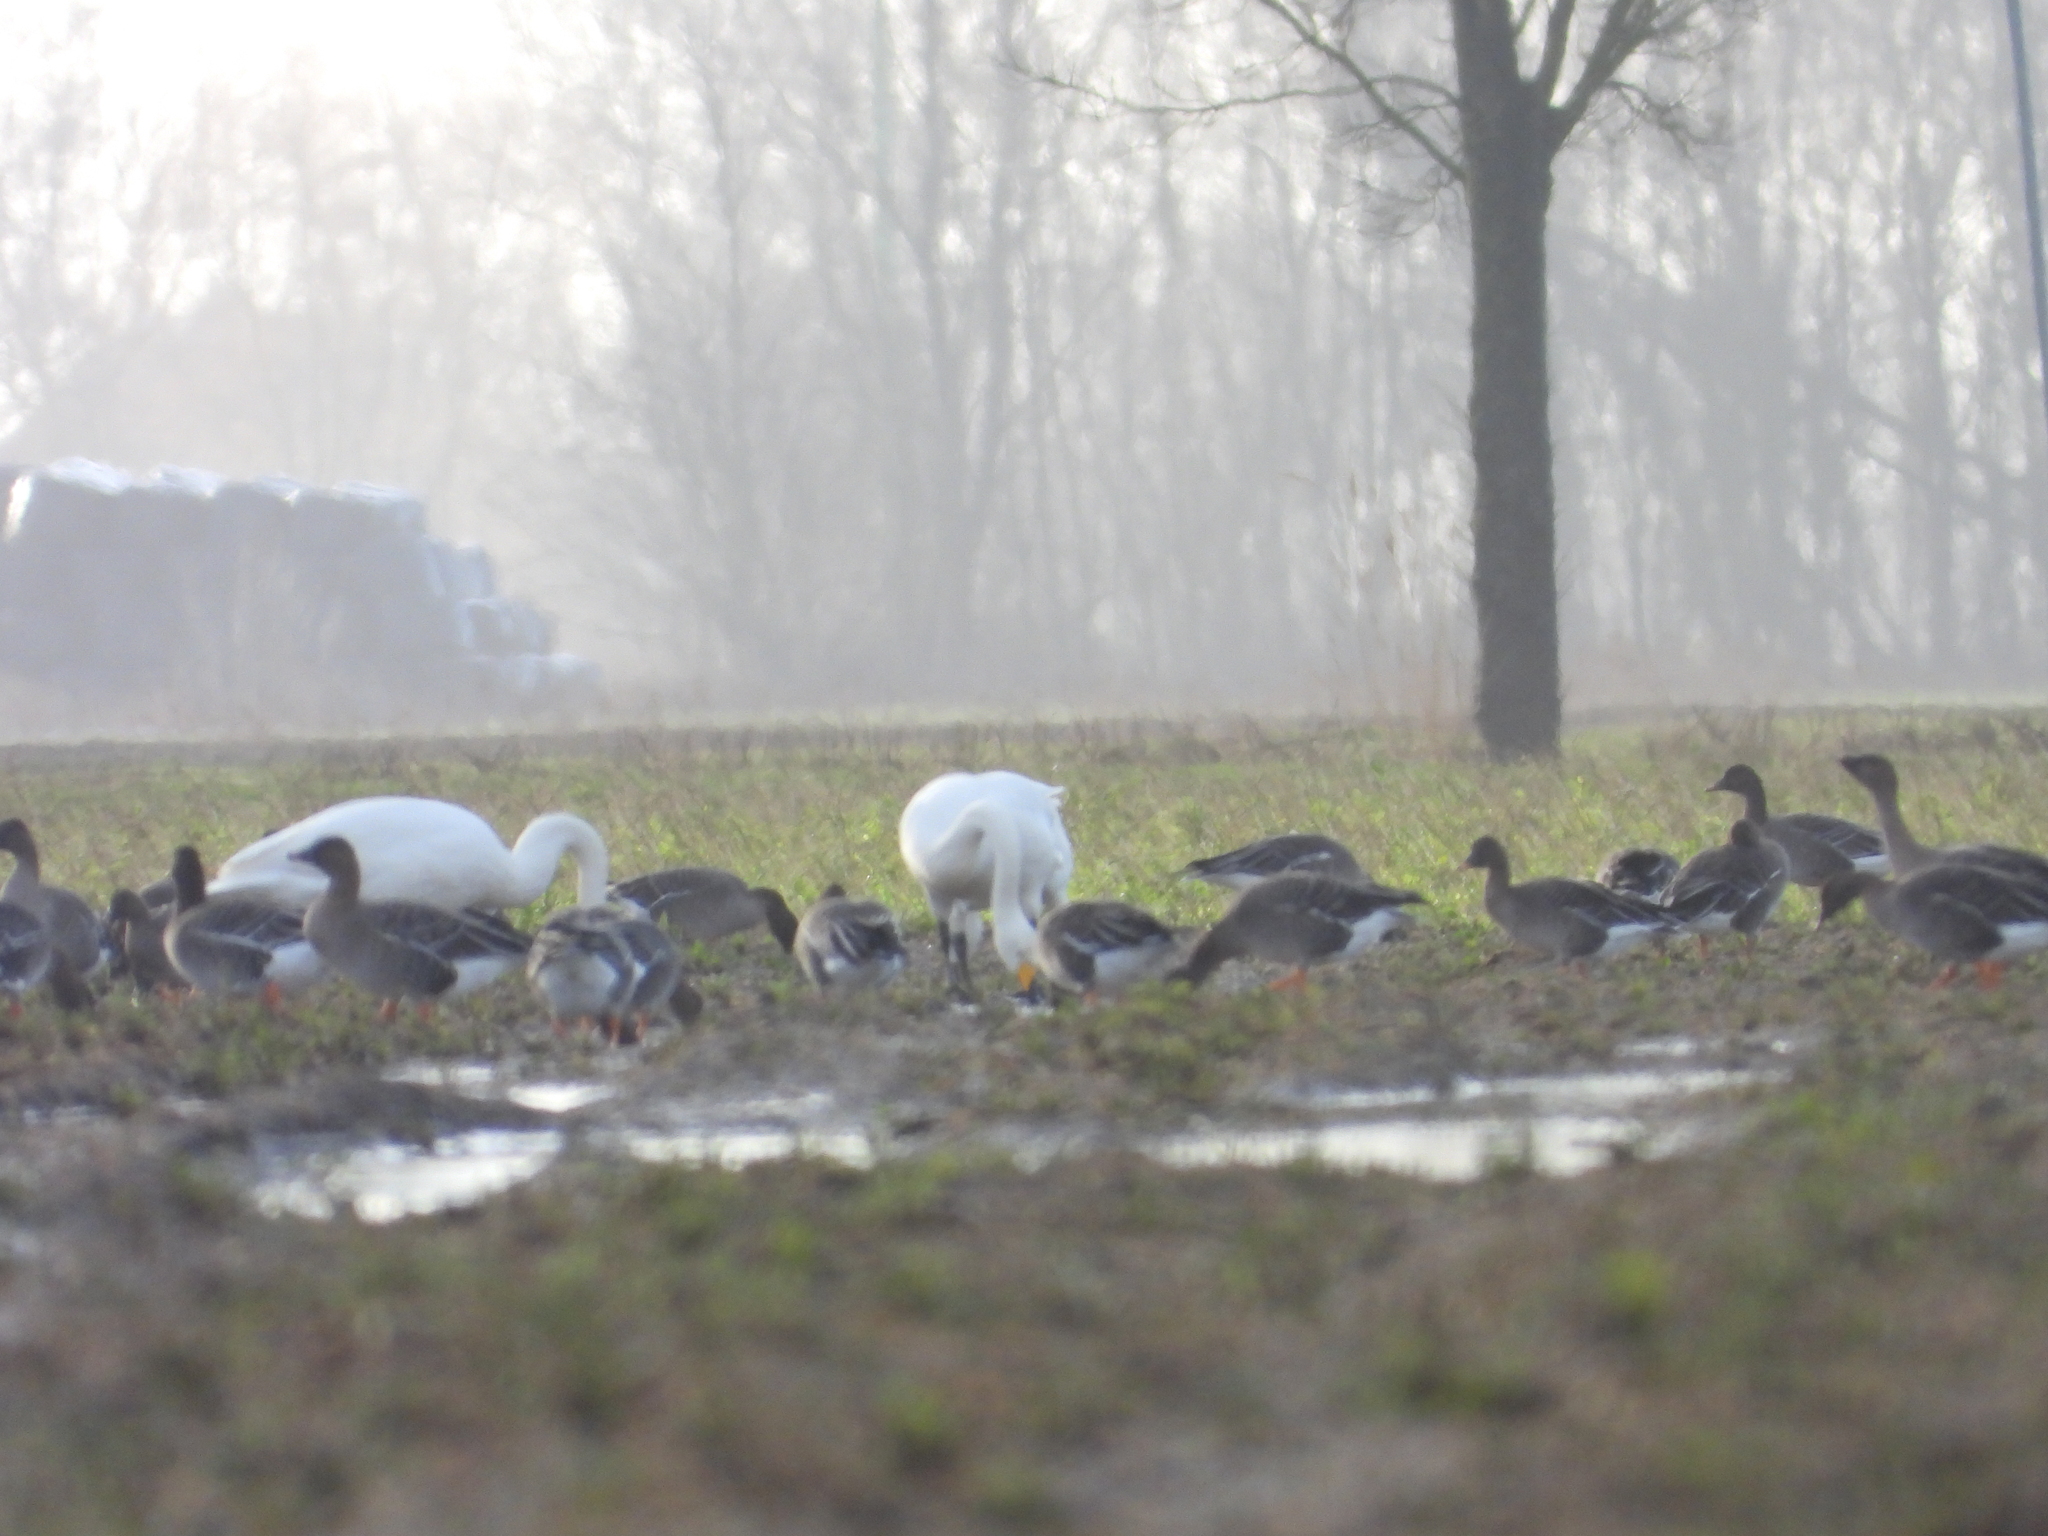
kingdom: Animalia
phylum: Chordata
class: Aves
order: Anseriformes
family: Anatidae
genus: Anser
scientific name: Anser serrirostris
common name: Tundra bean goose
